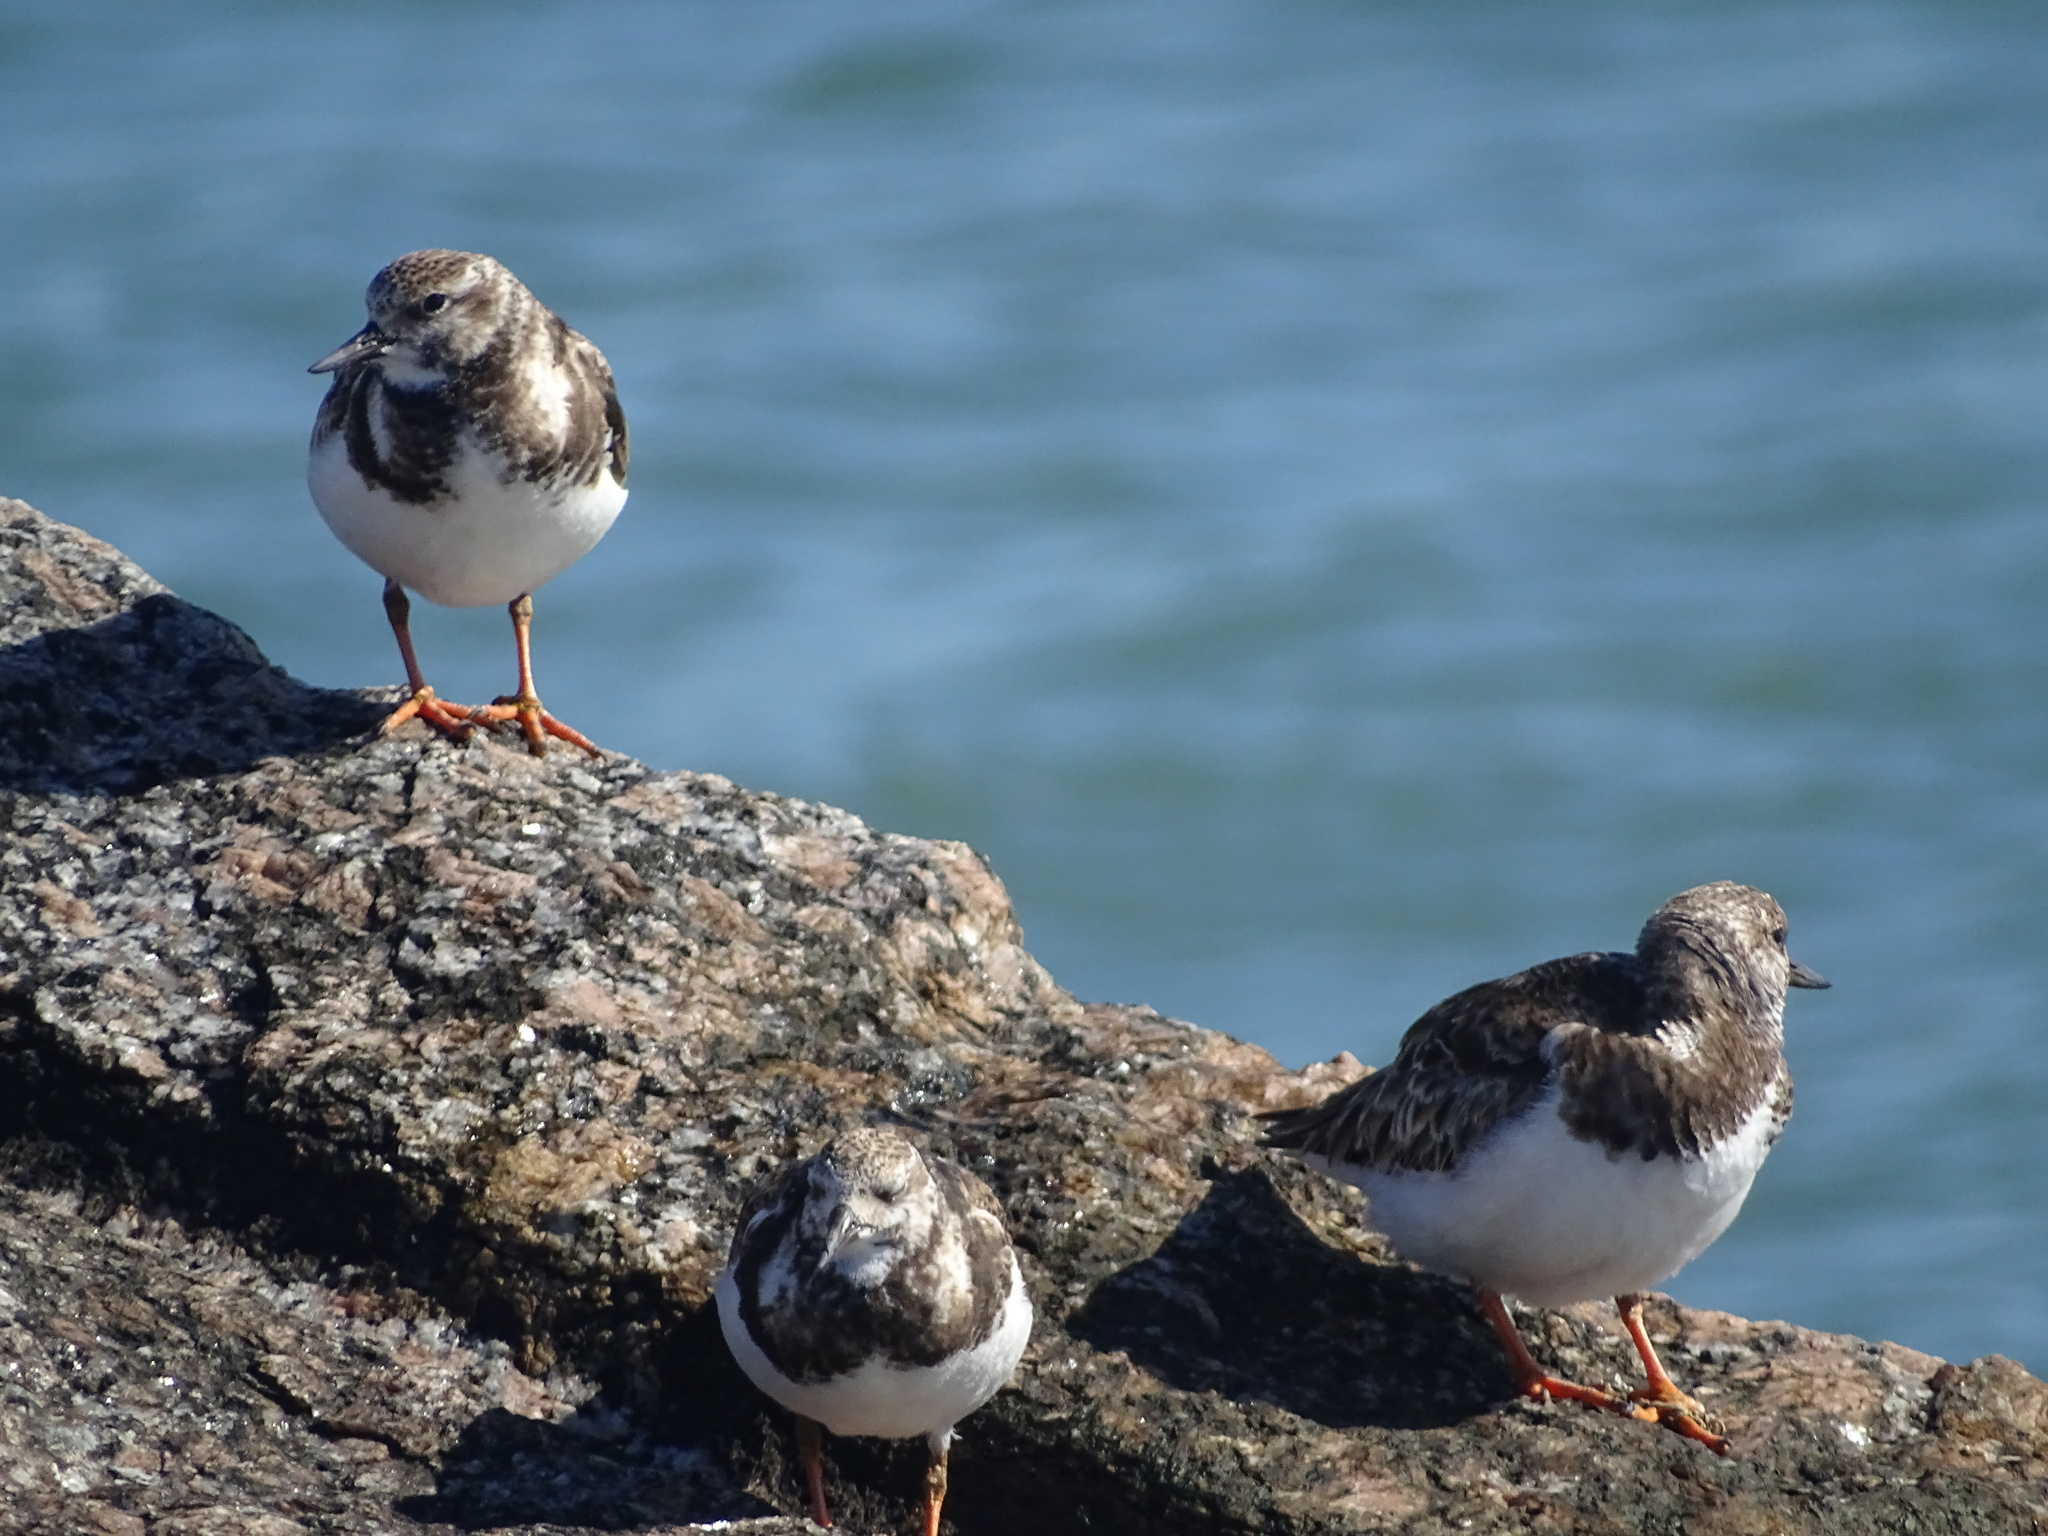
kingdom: Animalia
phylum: Chordata
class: Aves
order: Charadriiformes
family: Scolopacidae
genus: Arenaria
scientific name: Arenaria interpres
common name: Ruddy turnstone
